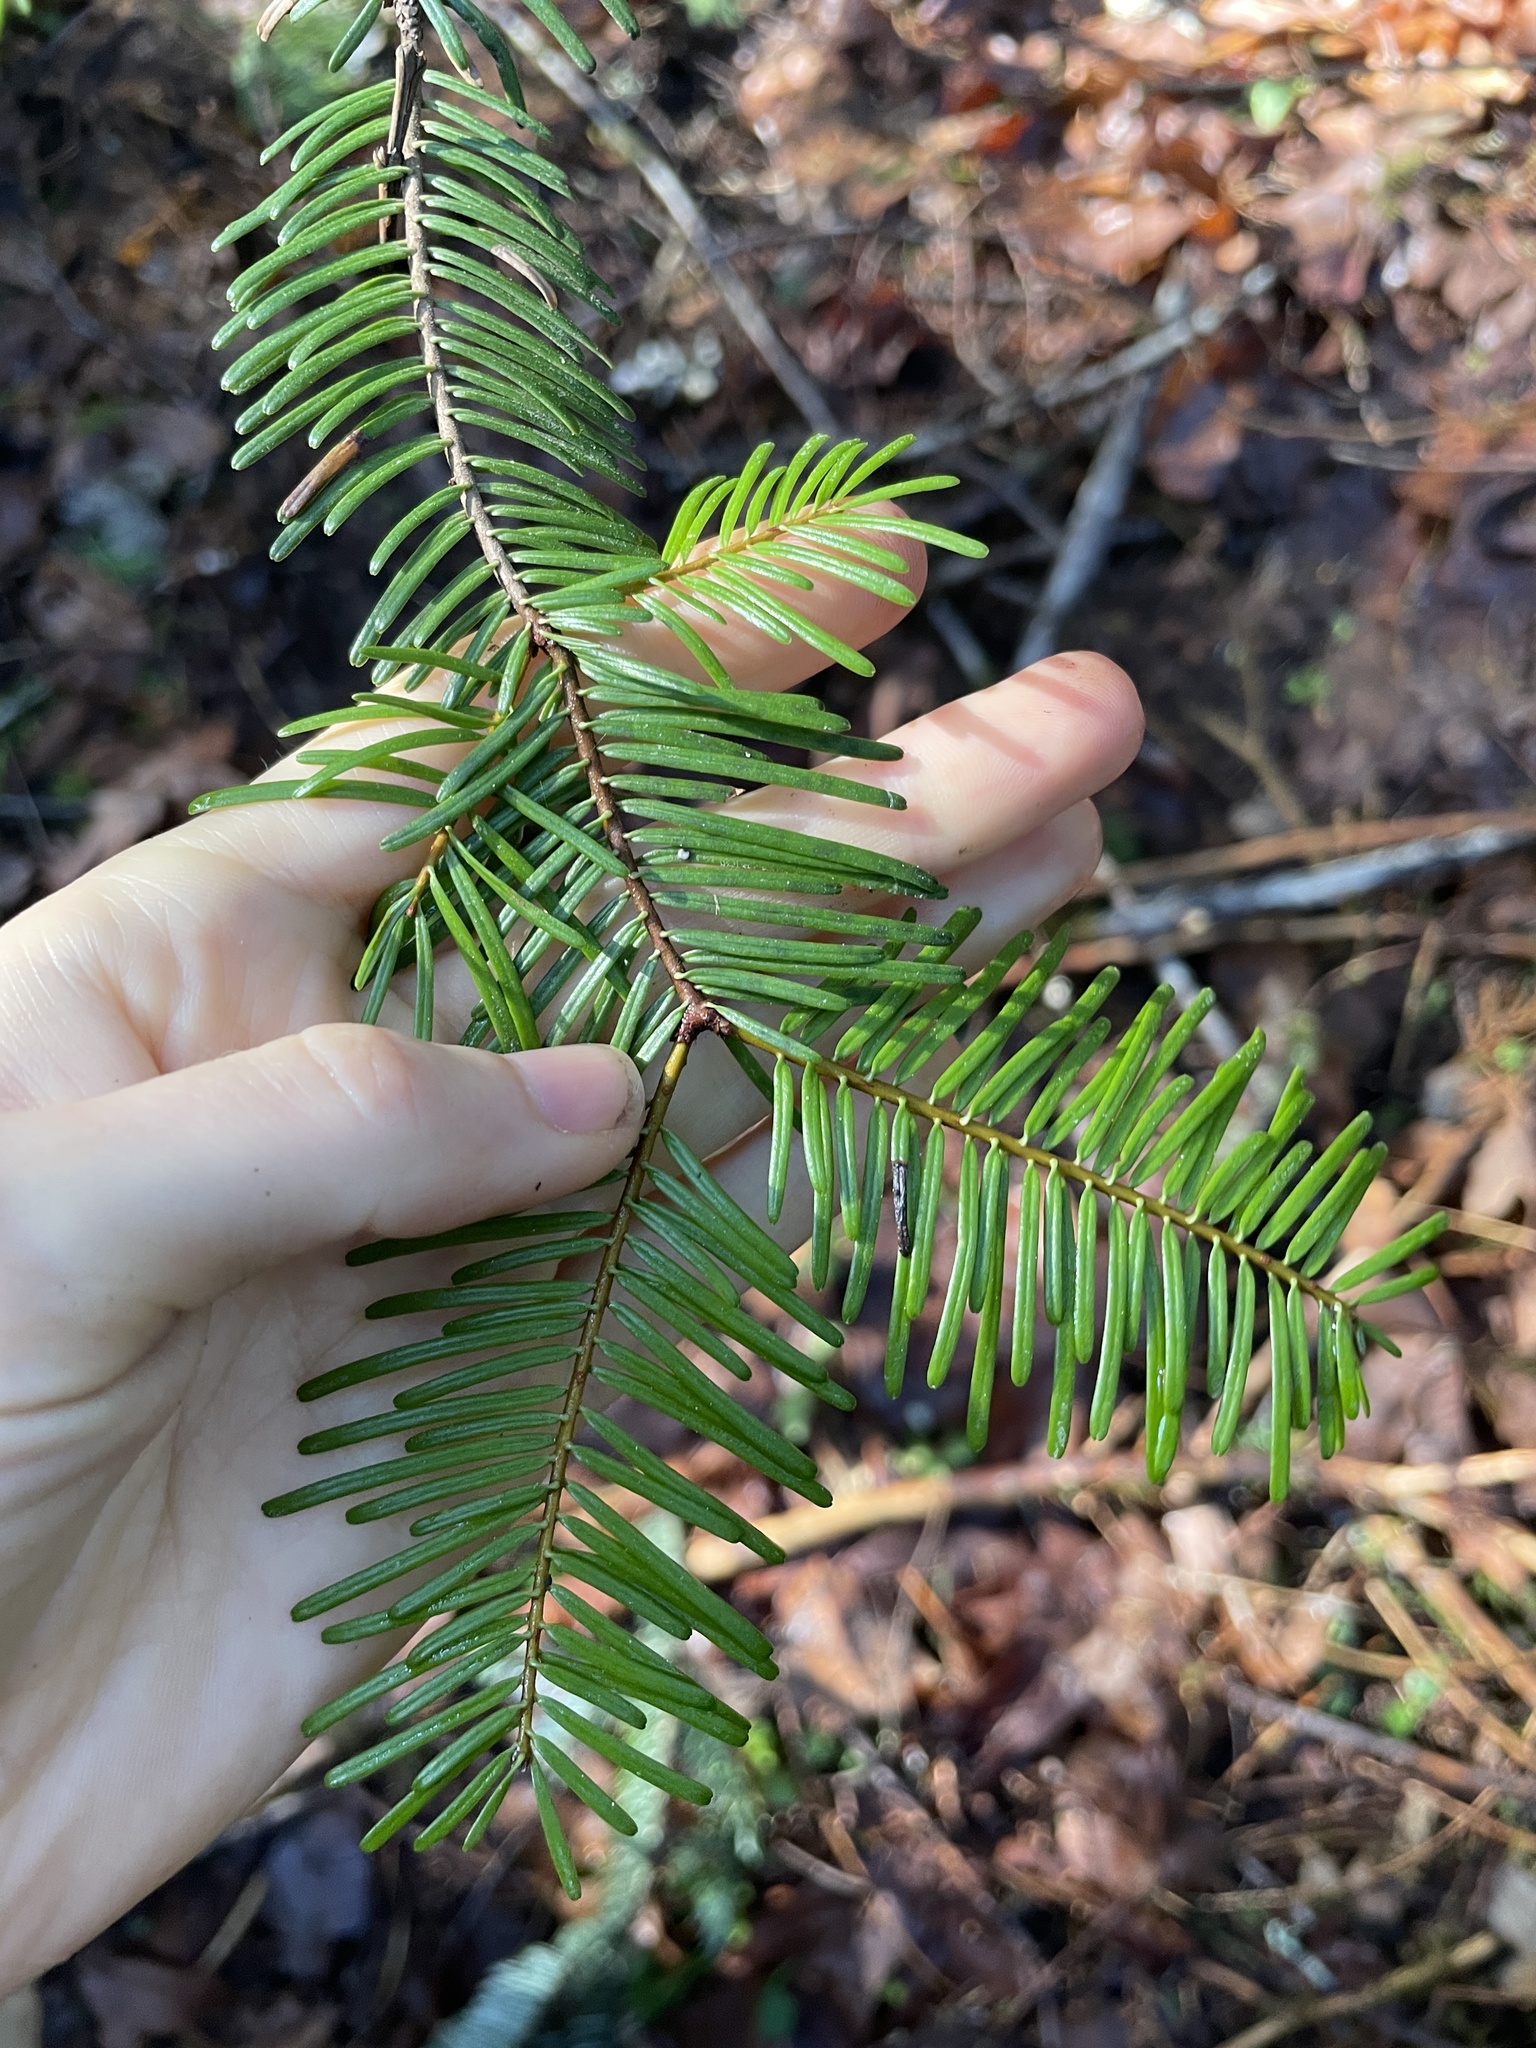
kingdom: Plantae
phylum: Tracheophyta
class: Pinopsida
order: Pinales
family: Pinaceae
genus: Abies
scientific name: Abies grandis
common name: Giant fir
